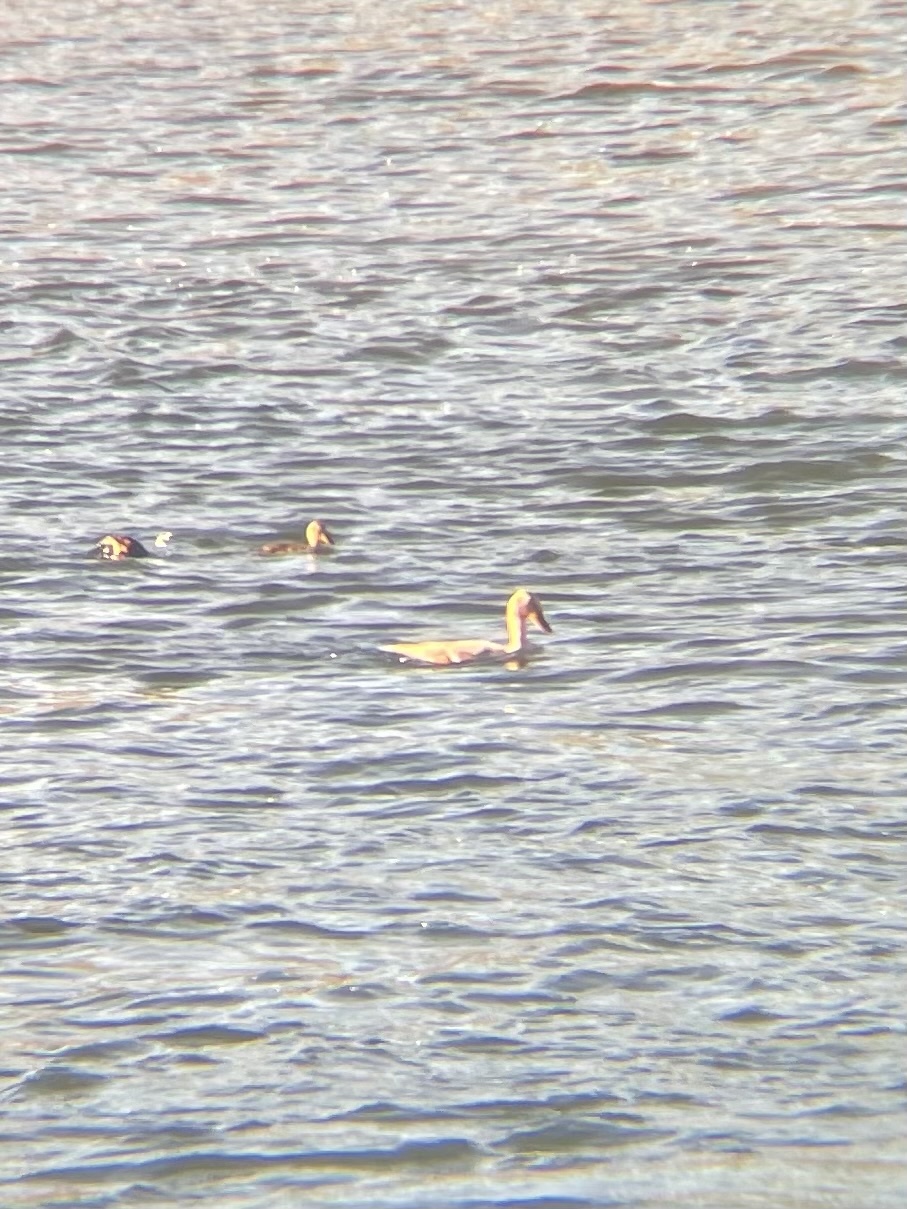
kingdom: Animalia
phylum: Chordata
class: Aves
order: Anseriformes
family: Anatidae
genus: Anas
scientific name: Anas platyrhynchos
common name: Mallard
